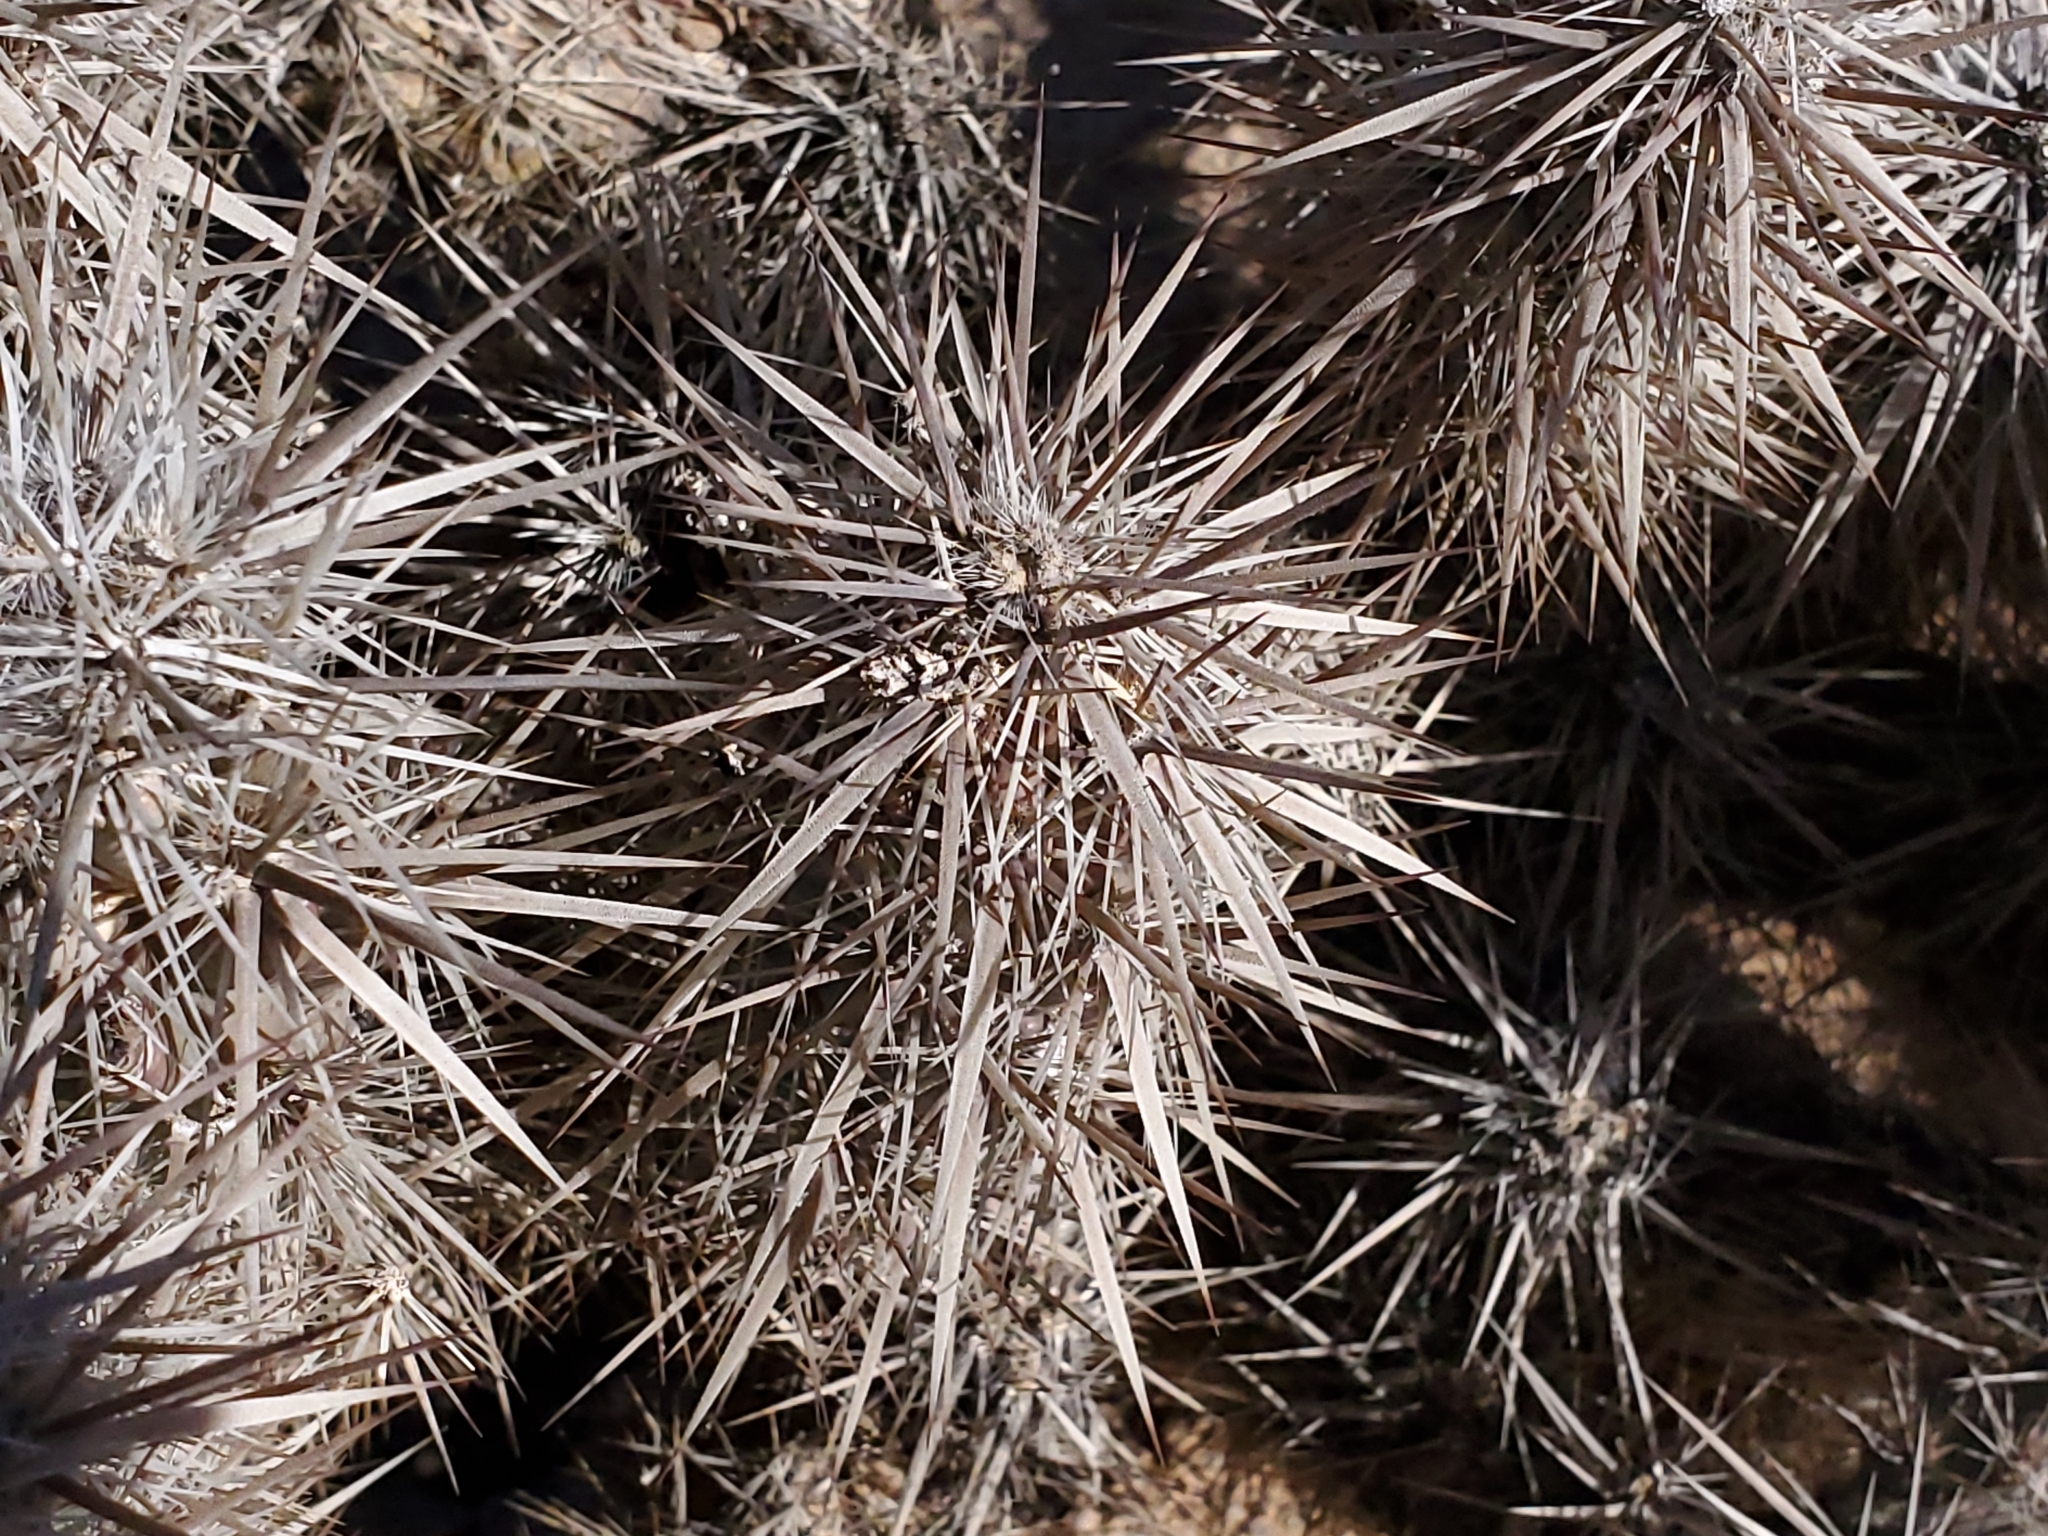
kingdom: Plantae
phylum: Tracheophyta
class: Magnoliopsida
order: Caryophyllales
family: Cactaceae
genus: Grusonia
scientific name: Grusonia kunzei
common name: Wright's club cholla
